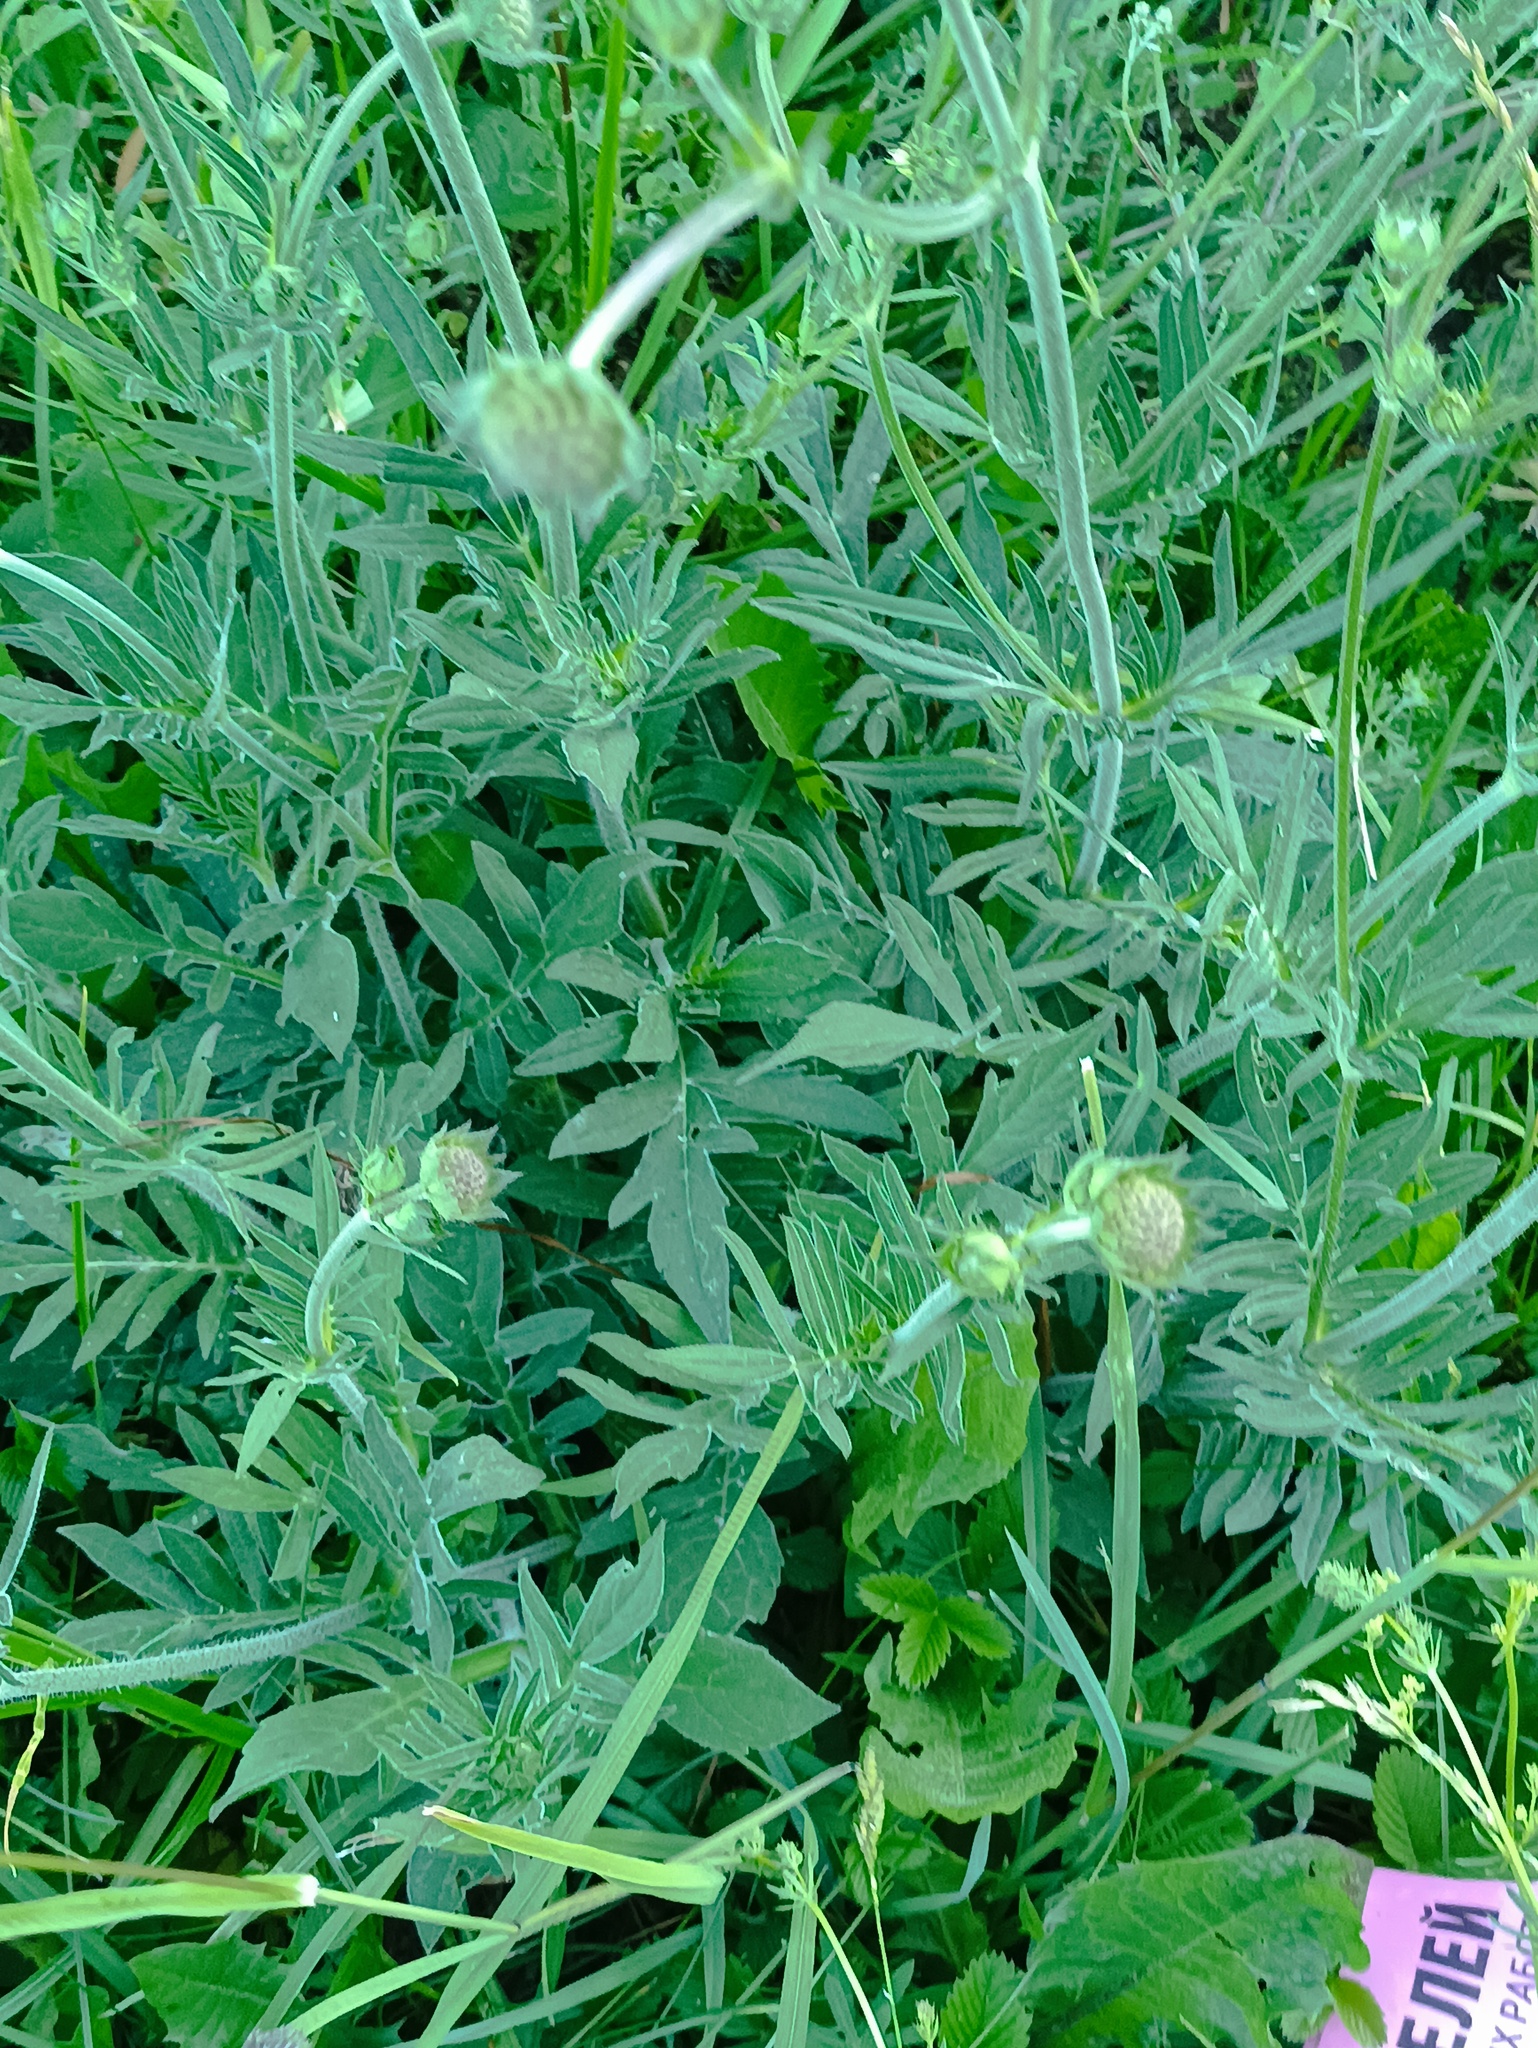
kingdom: Plantae
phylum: Tracheophyta
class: Magnoliopsida
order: Dipsacales
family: Caprifoliaceae
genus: Knautia
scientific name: Knautia arvensis
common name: Field scabiosa
